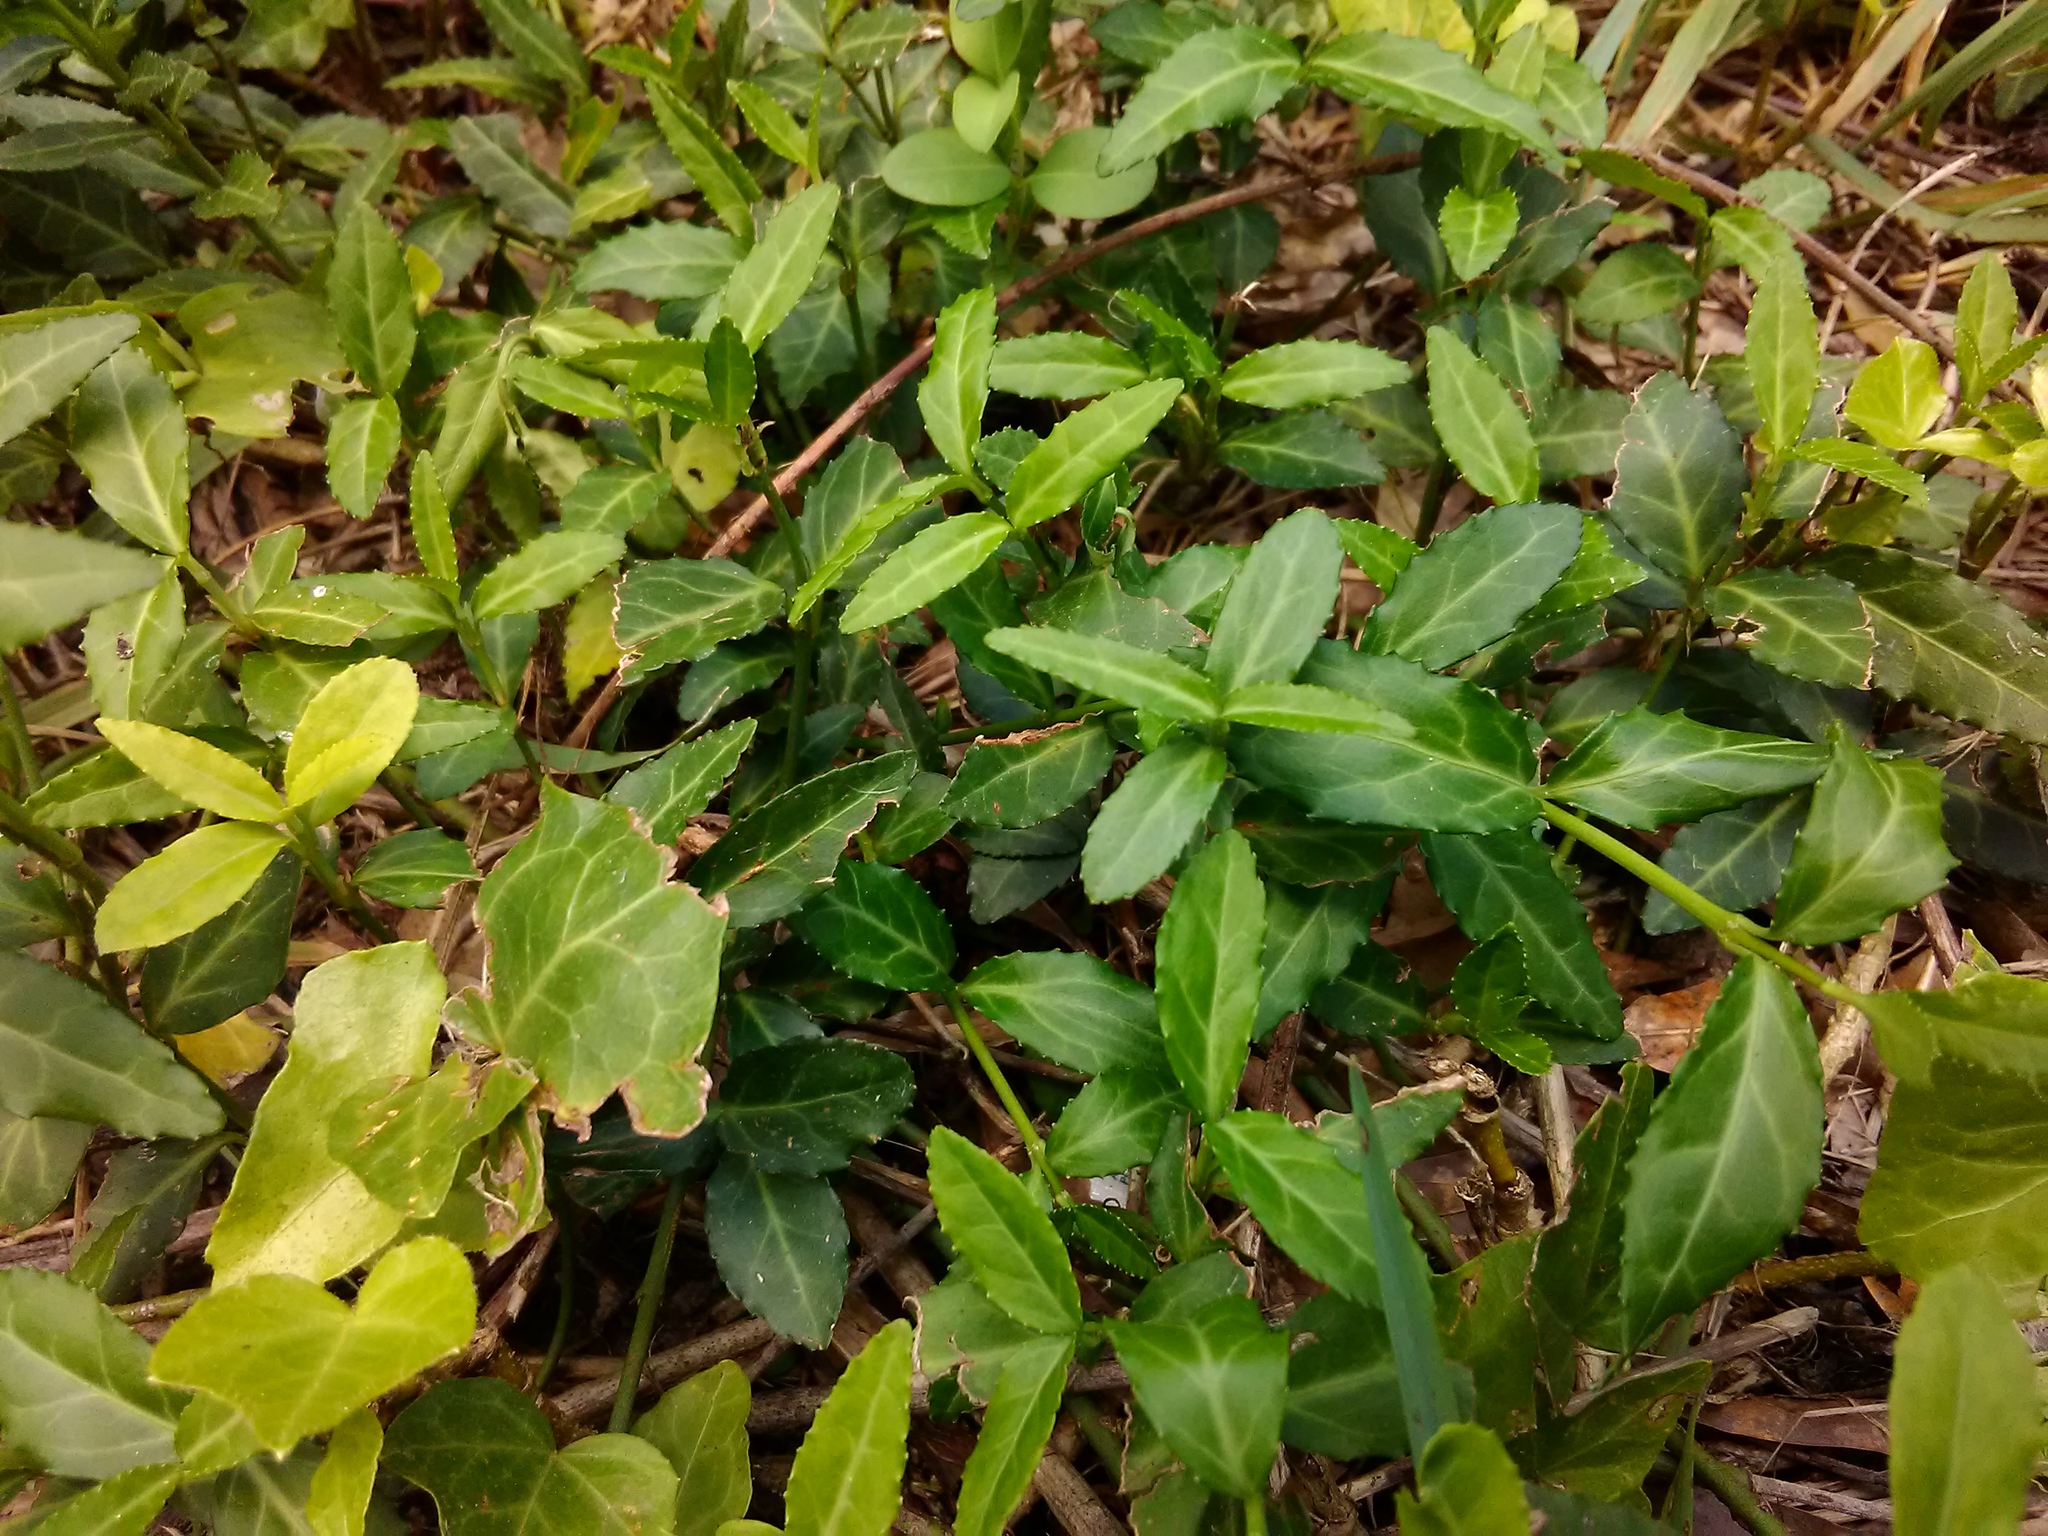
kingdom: Plantae
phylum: Tracheophyta
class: Magnoliopsida
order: Celastrales
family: Celastraceae
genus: Euonymus
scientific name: Euonymus fortunei
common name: Climbing euonymus
